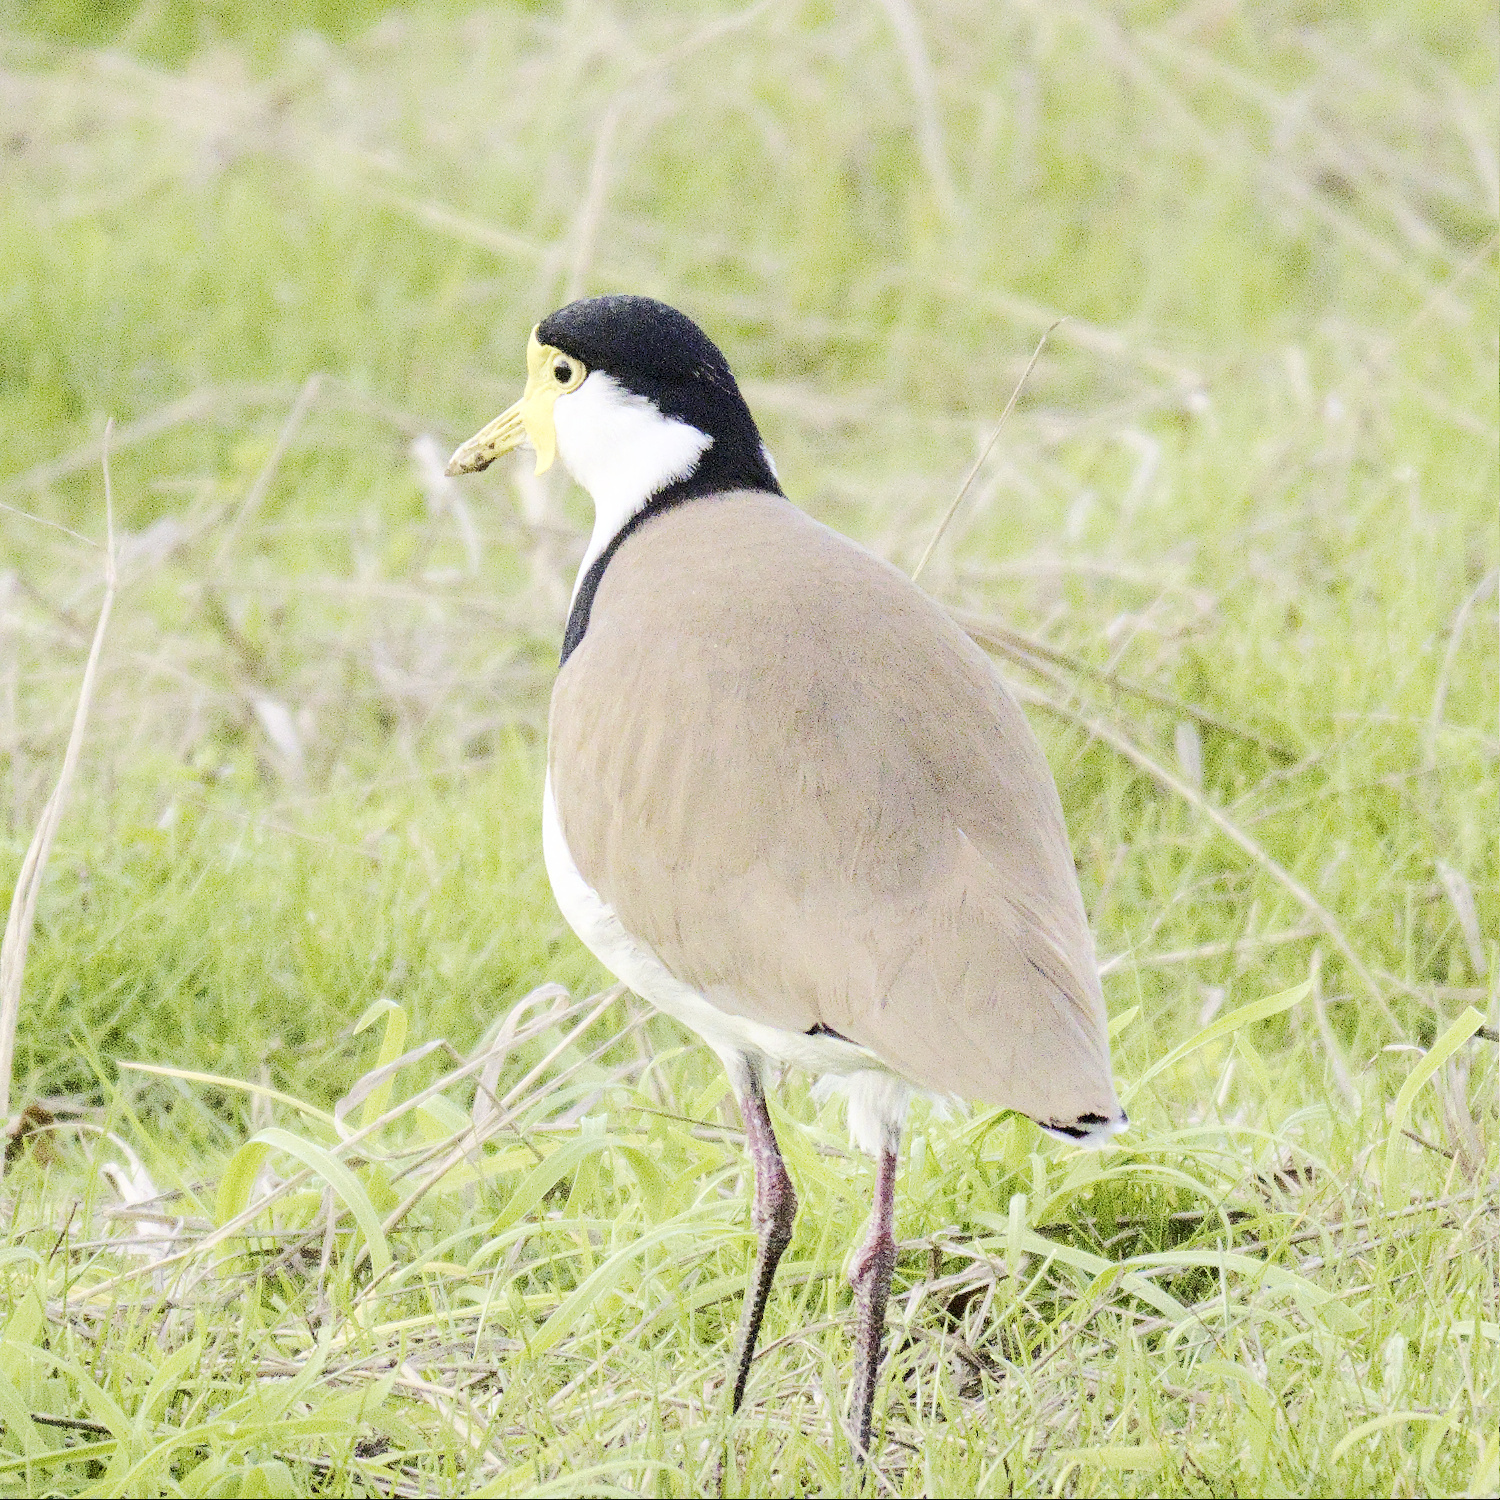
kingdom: Animalia
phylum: Chordata
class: Aves
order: Charadriiformes
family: Charadriidae
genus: Vanellus
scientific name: Vanellus miles
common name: Masked lapwing
